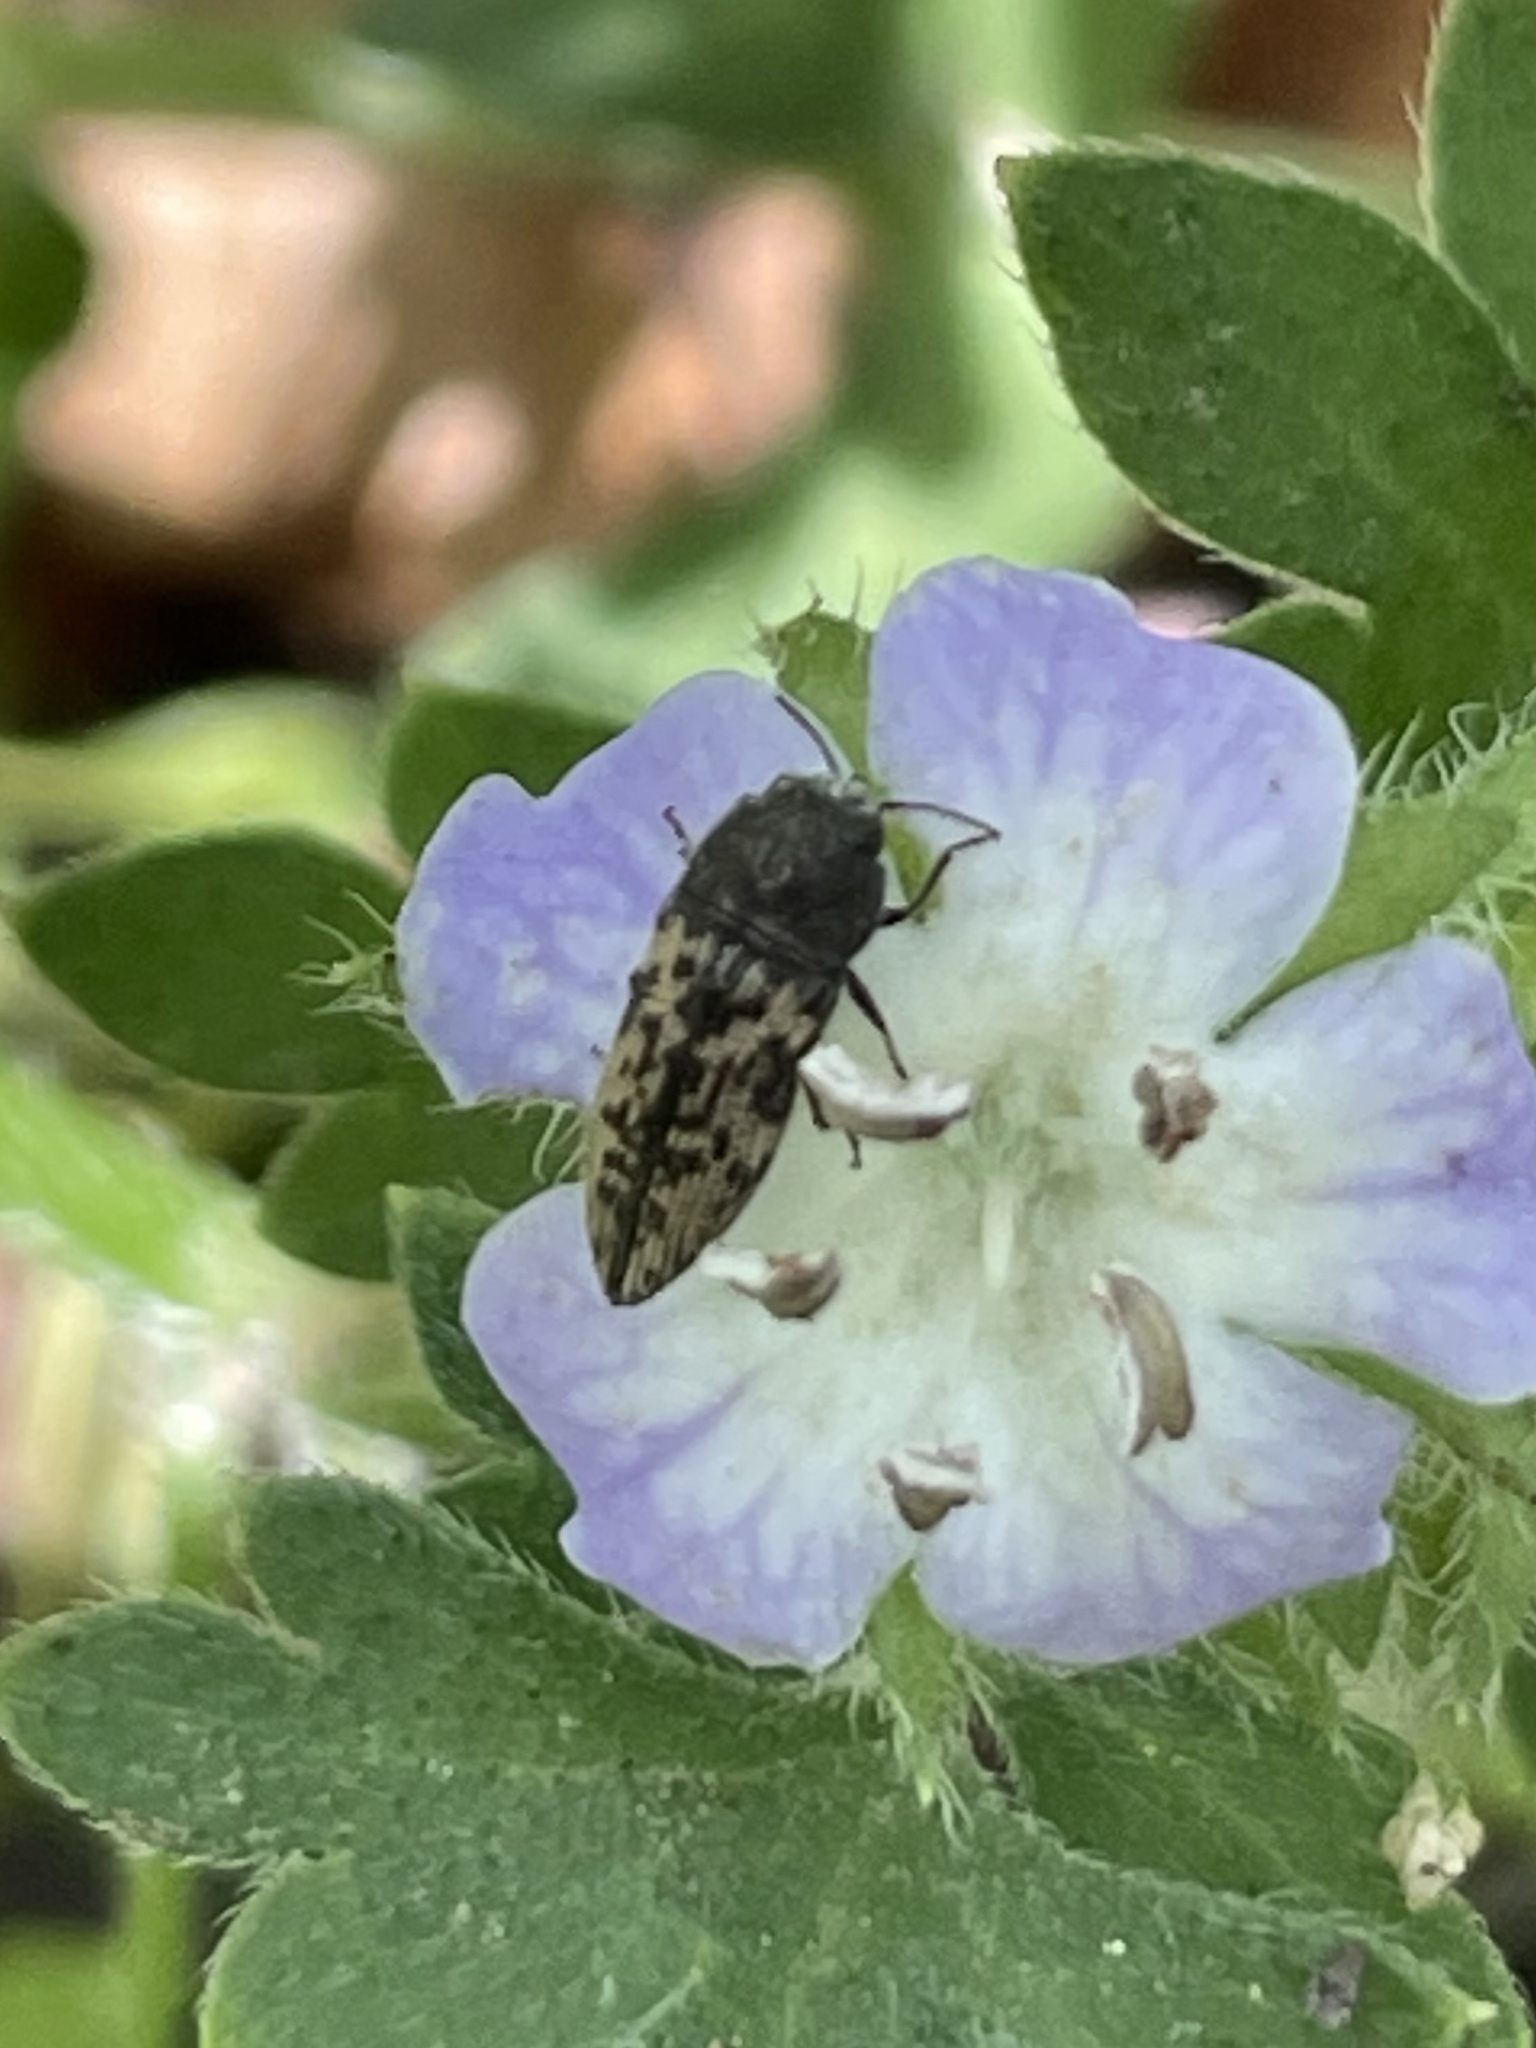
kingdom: Animalia
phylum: Arthropoda
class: Insecta
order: Coleoptera
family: Buprestidae
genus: Acmaeodera
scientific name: Acmaeodera neglecta
